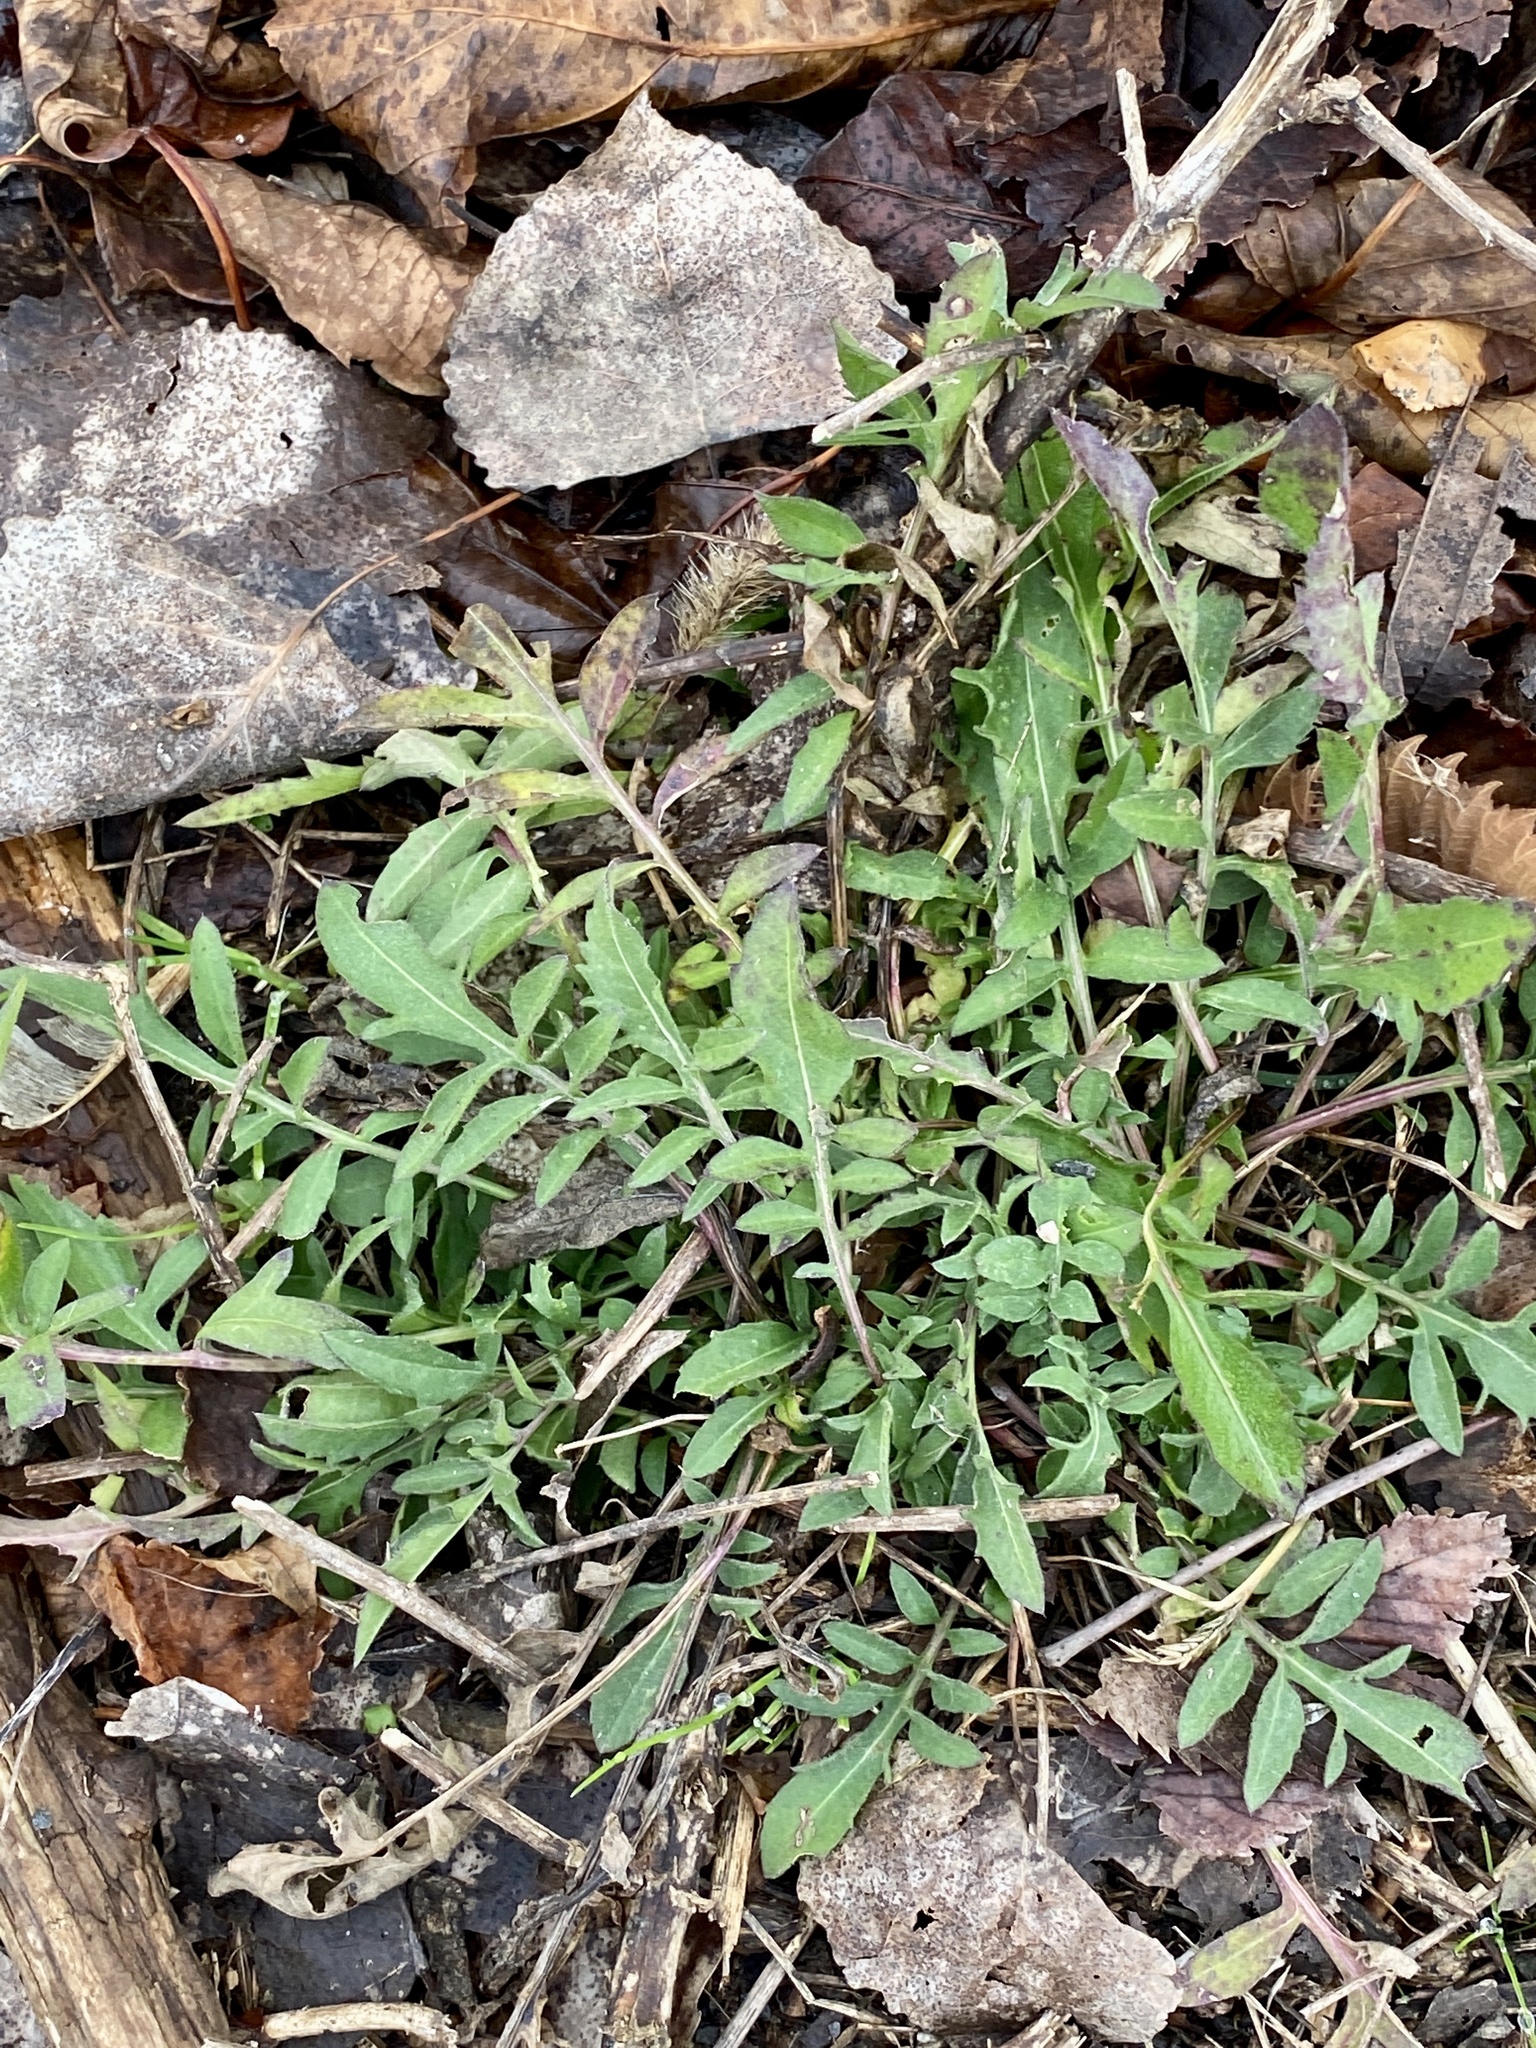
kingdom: Plantae
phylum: Tracheophyta
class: Magnoliopsida
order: Asterales
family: Asteraceae
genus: Centaurea
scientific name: Centaurea stoebe
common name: Spotted knapweed
